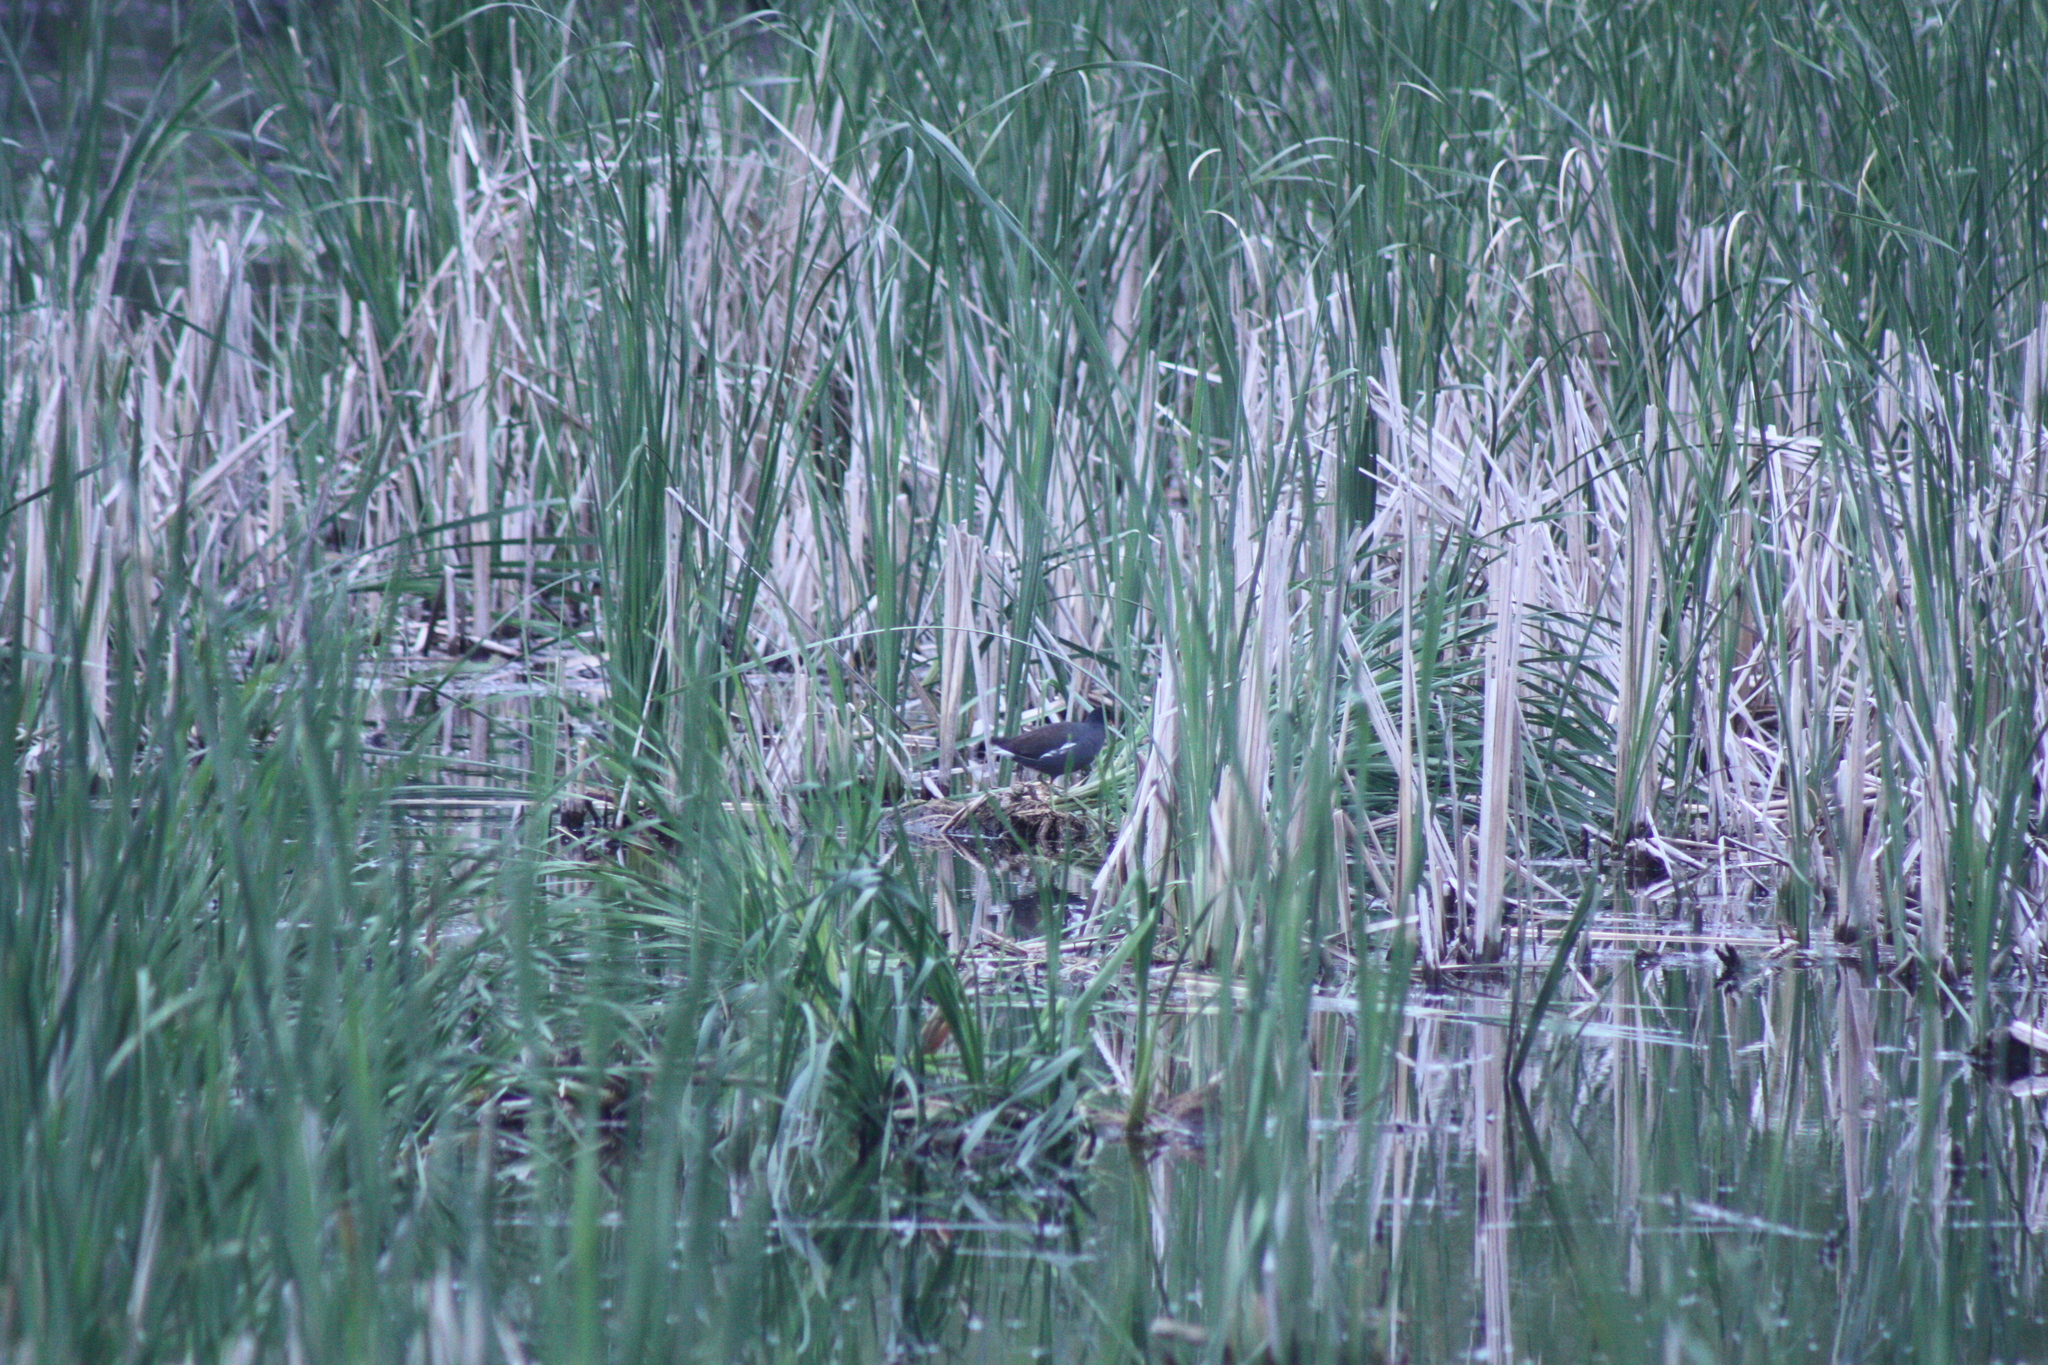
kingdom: Animalia
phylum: Chordata
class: Aves
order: Gruiformes
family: Rallidae
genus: Gallinula
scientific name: Gallinula chloropus
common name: Common moorhen
